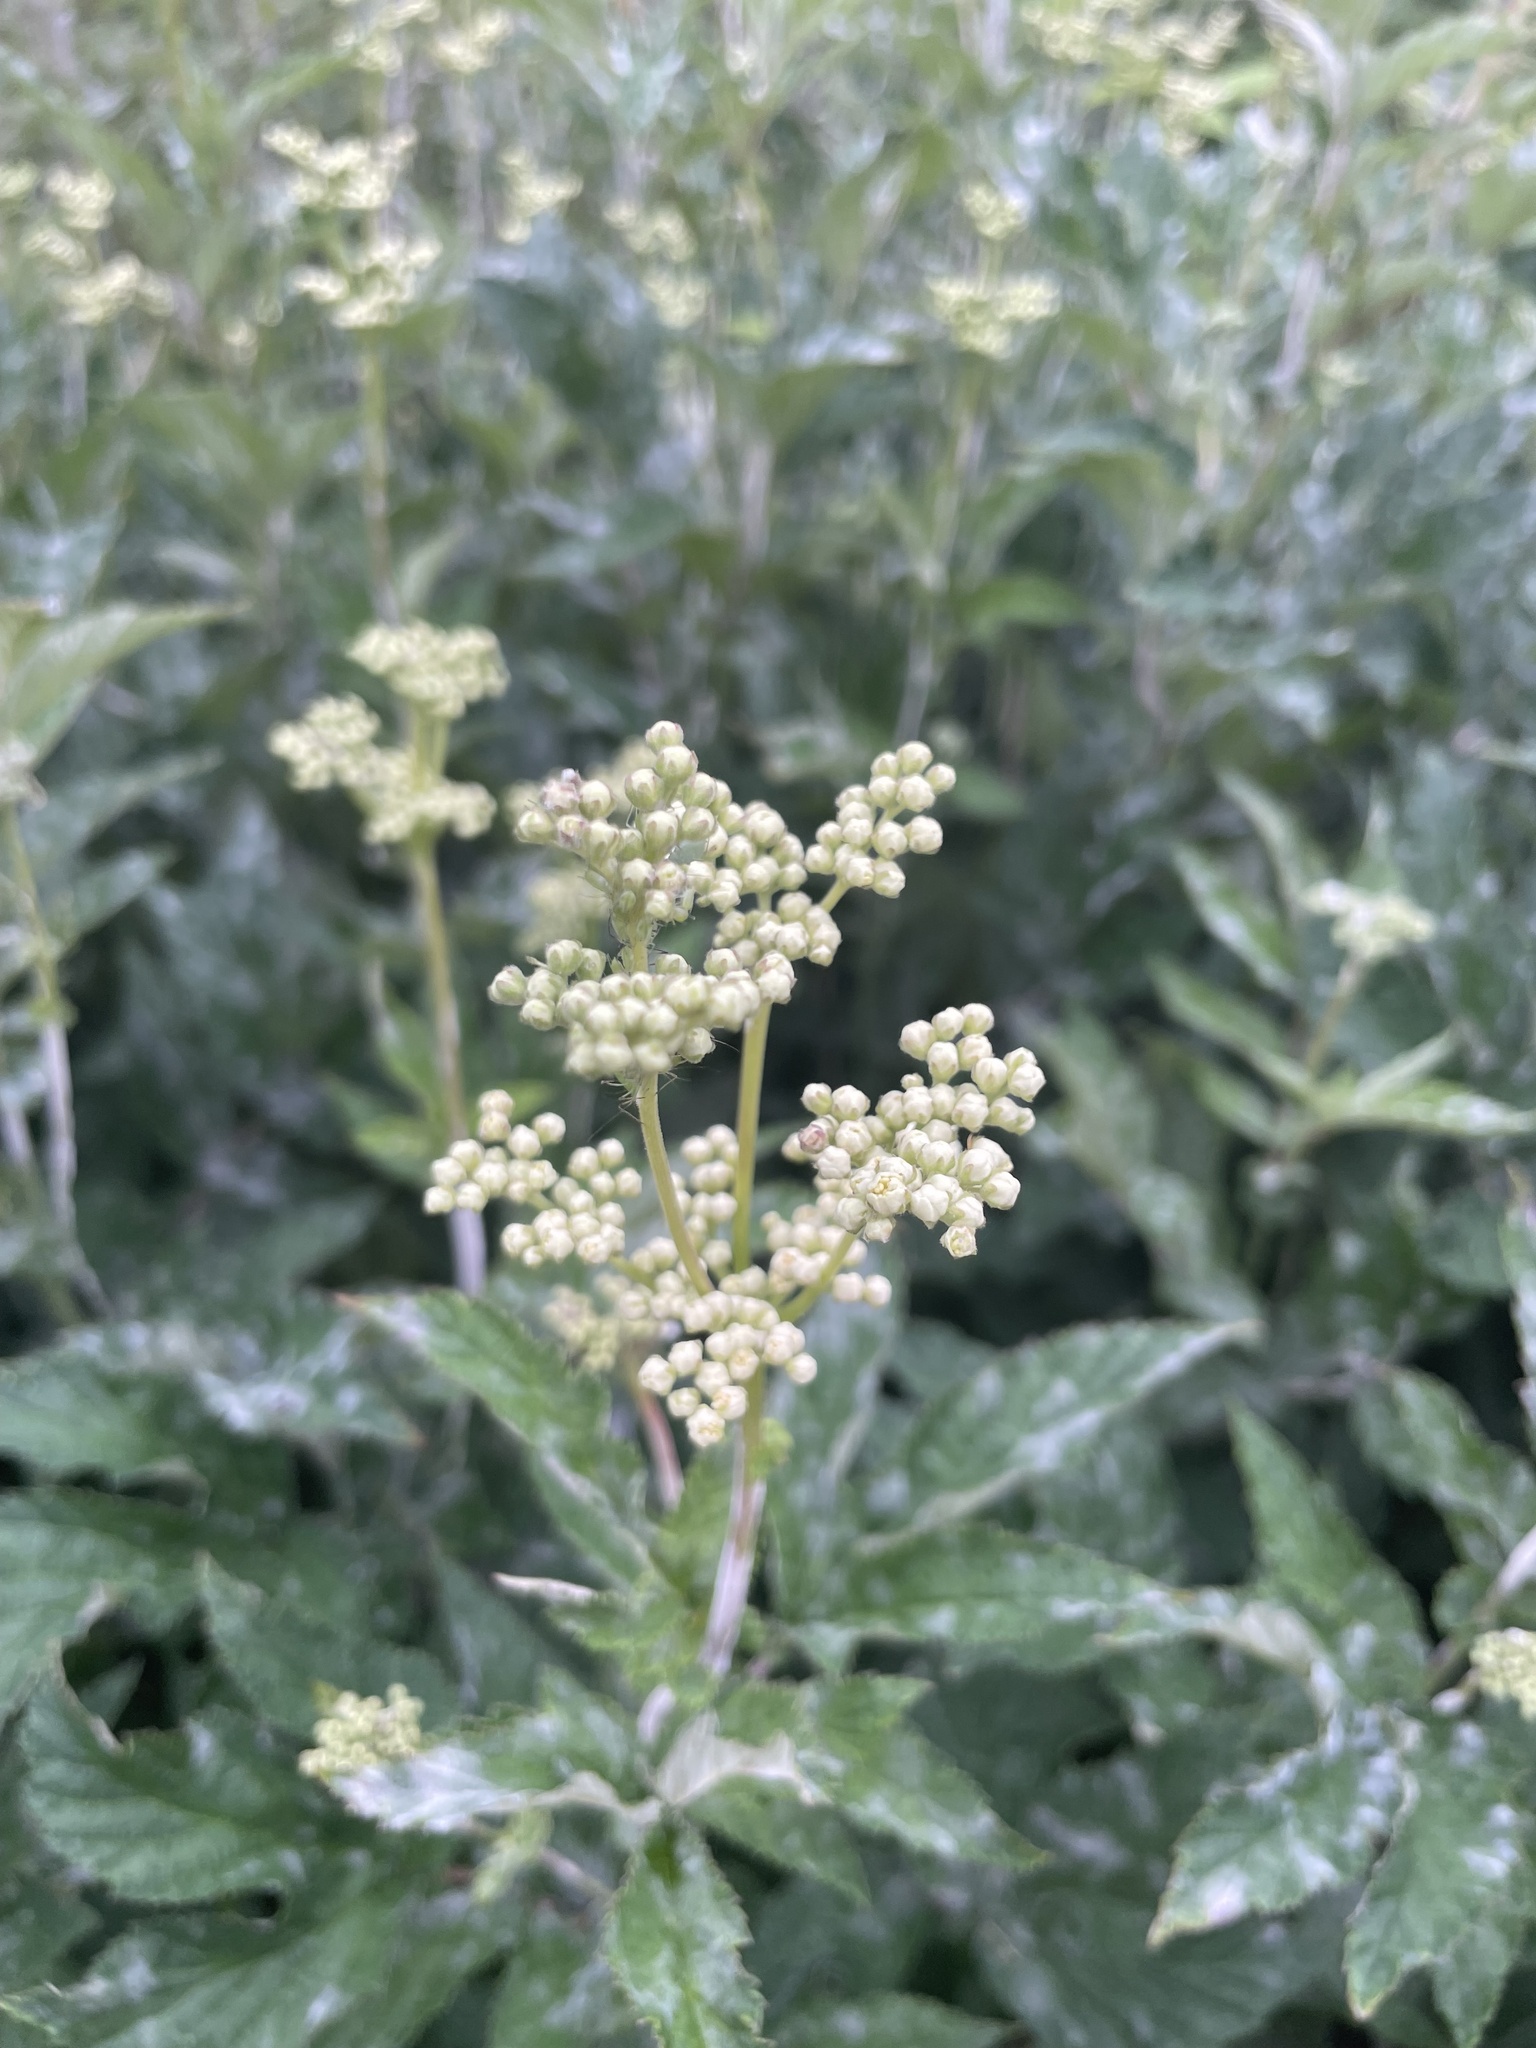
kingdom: Plantae
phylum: Tracheophyta
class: Magnoliopsida
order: Rosales
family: Rosaceae
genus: Filipendula
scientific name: Filipendula ulmaria
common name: Meadowsweet
